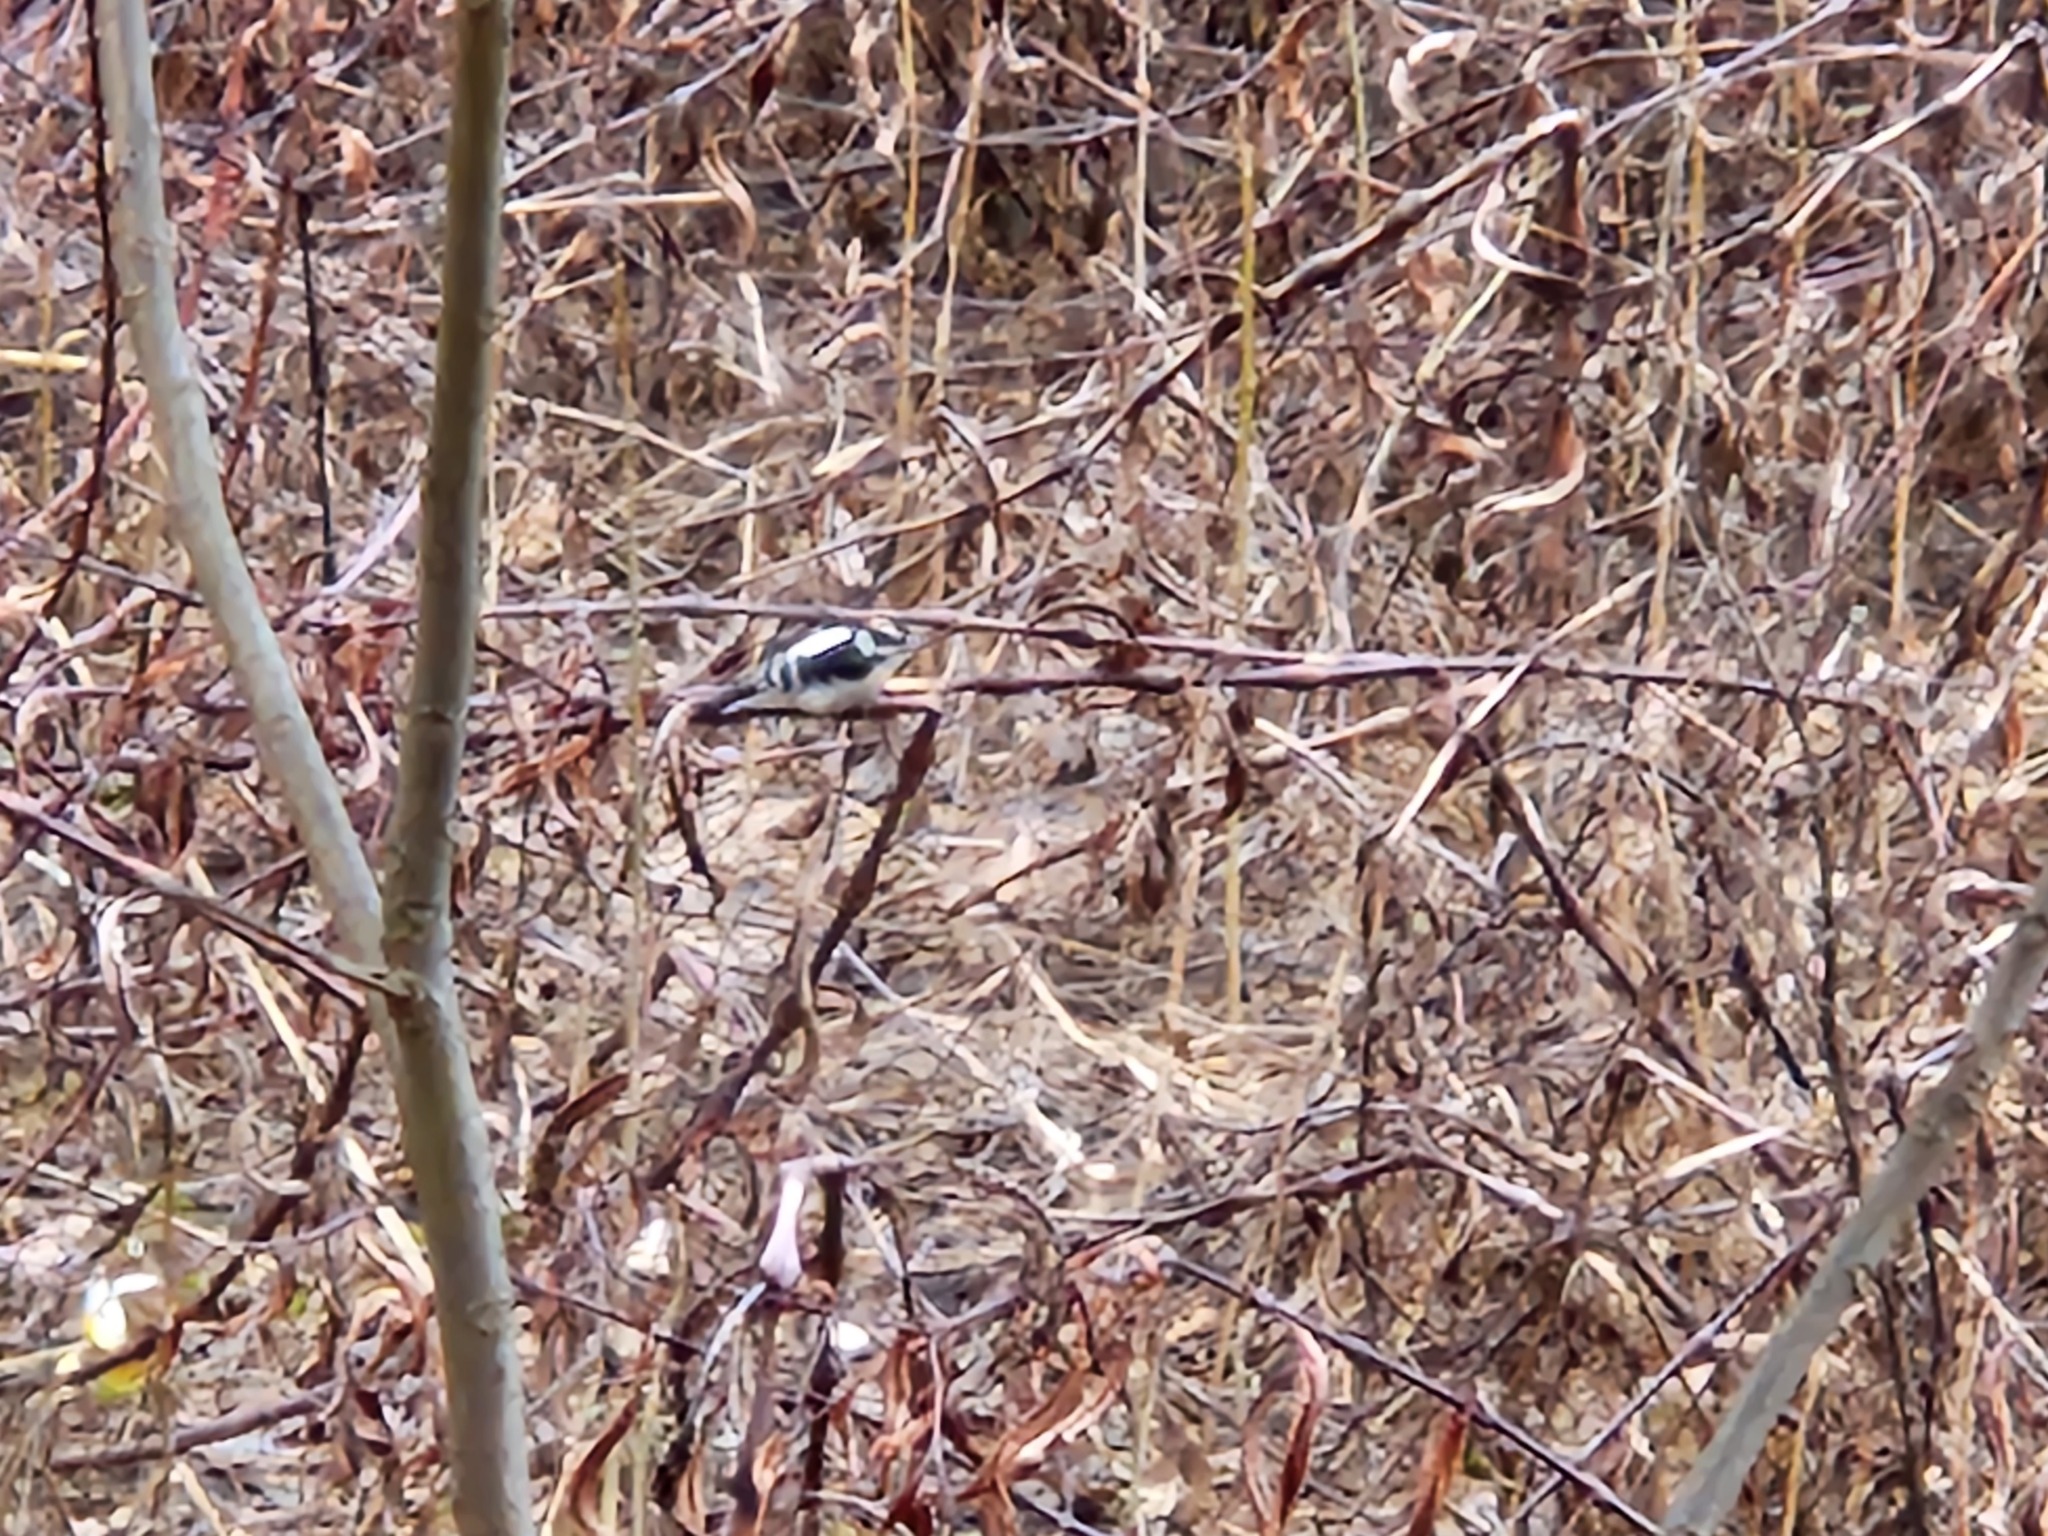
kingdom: Animalia
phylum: Chordata
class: Aves
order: Piciformes
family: Picidae
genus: Dryobates
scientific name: Dryobates pubescens
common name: Downy woodpecker
